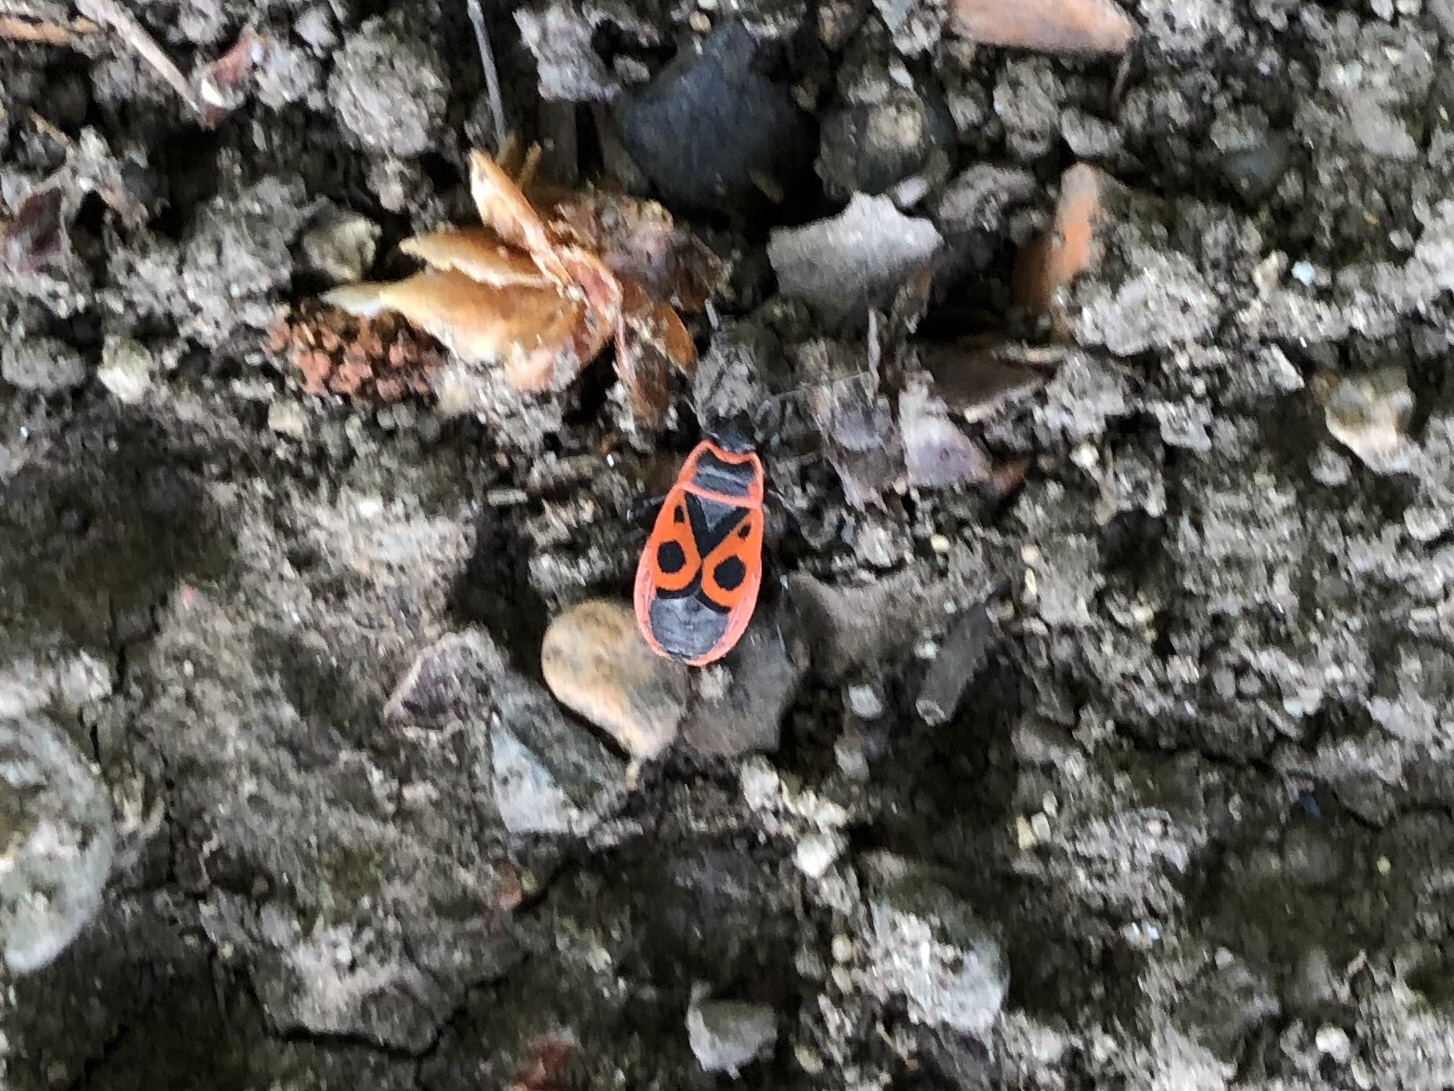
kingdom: Animalia
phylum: Arthropoda
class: Insecta
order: Hemiptera
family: Pyrrhocoridae
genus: Pyrrhocoris
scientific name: Pyrrhocoris apterus
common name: Firebug
